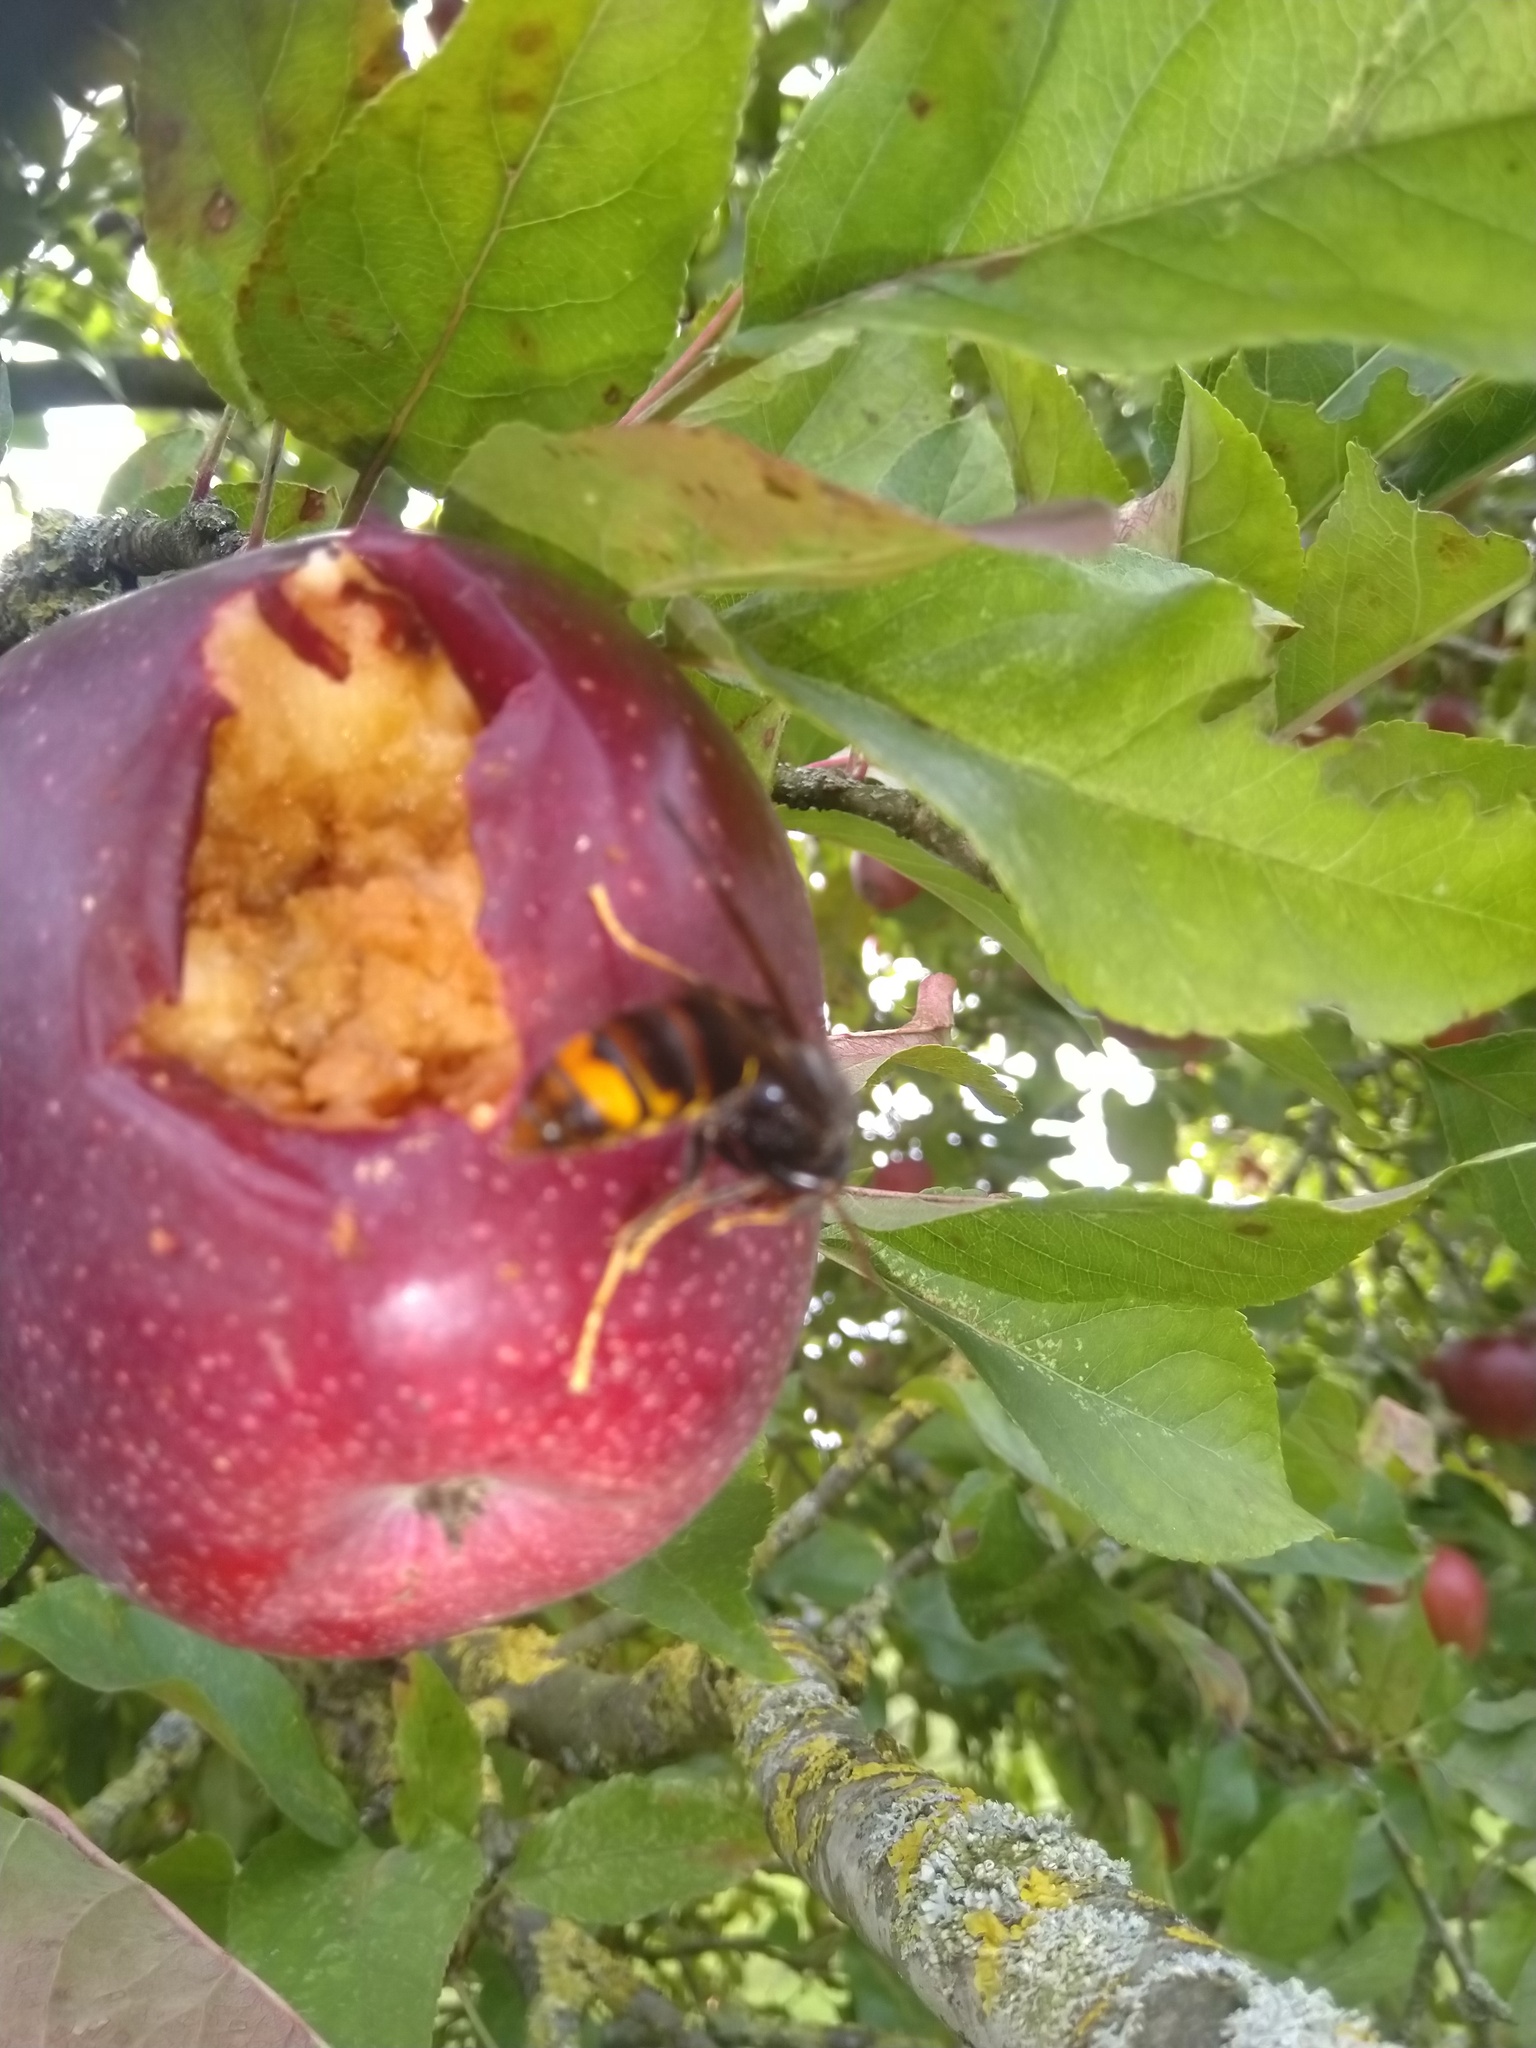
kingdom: Animalia
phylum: Arthropoda
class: Insecta
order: Hymenoptera
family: Vespidae
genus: Vespa
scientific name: Vespa velutina
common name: Asian hornet
